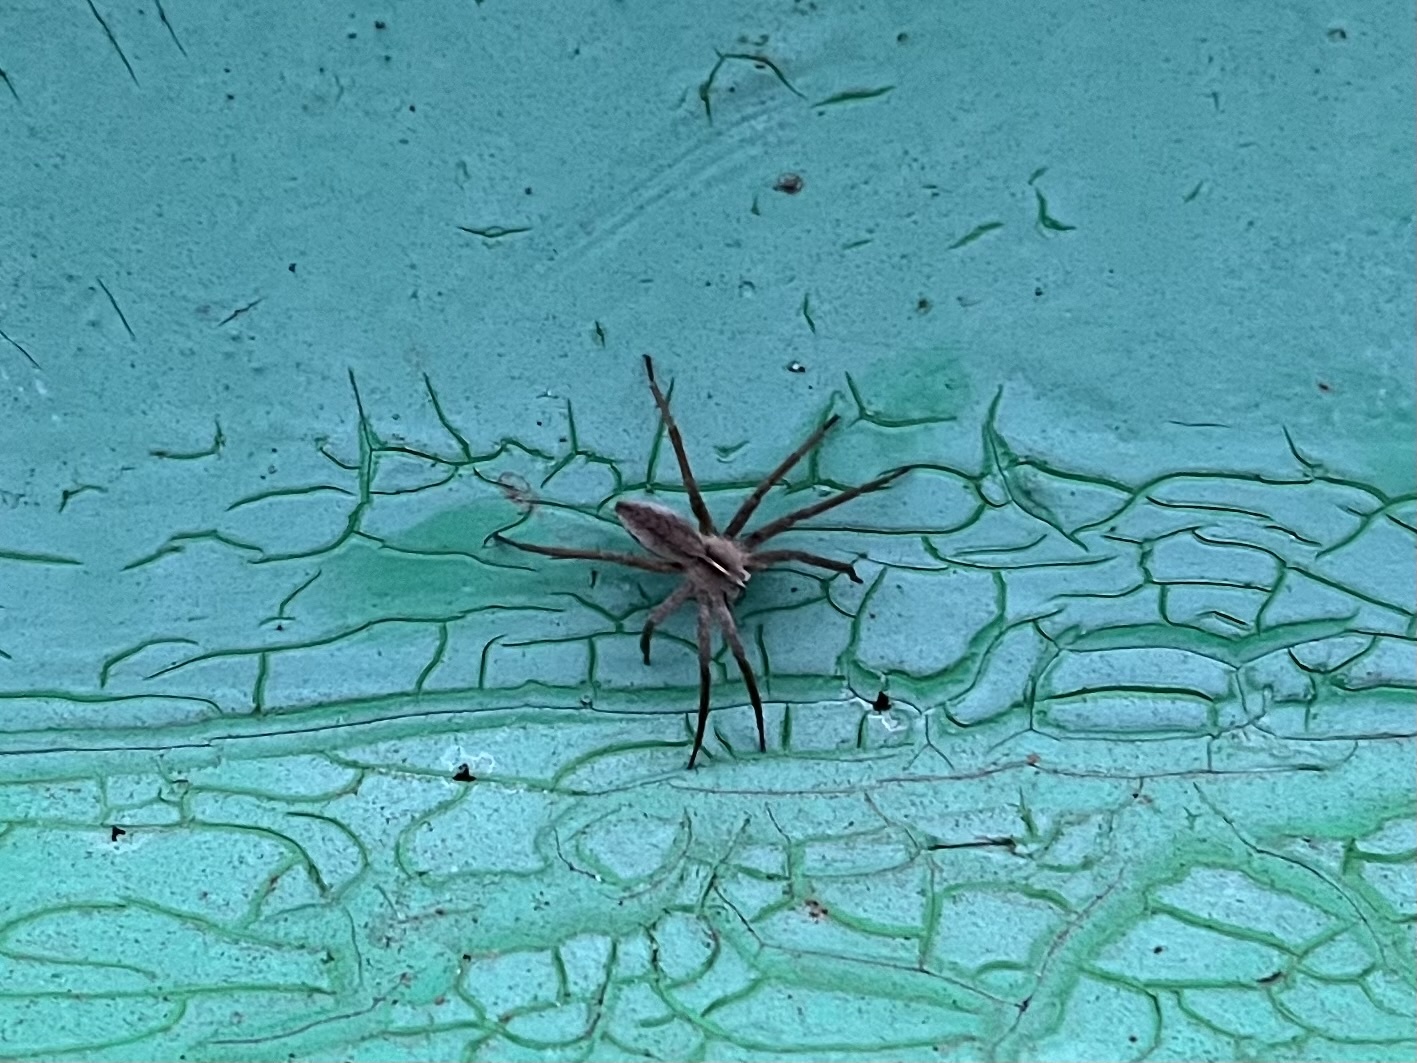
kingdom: Animalia
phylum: Arthropoda
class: Arachnida
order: Araneae
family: Pisauridae
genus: Pisaura
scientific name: Pisaura mirabilis
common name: Tent spider
